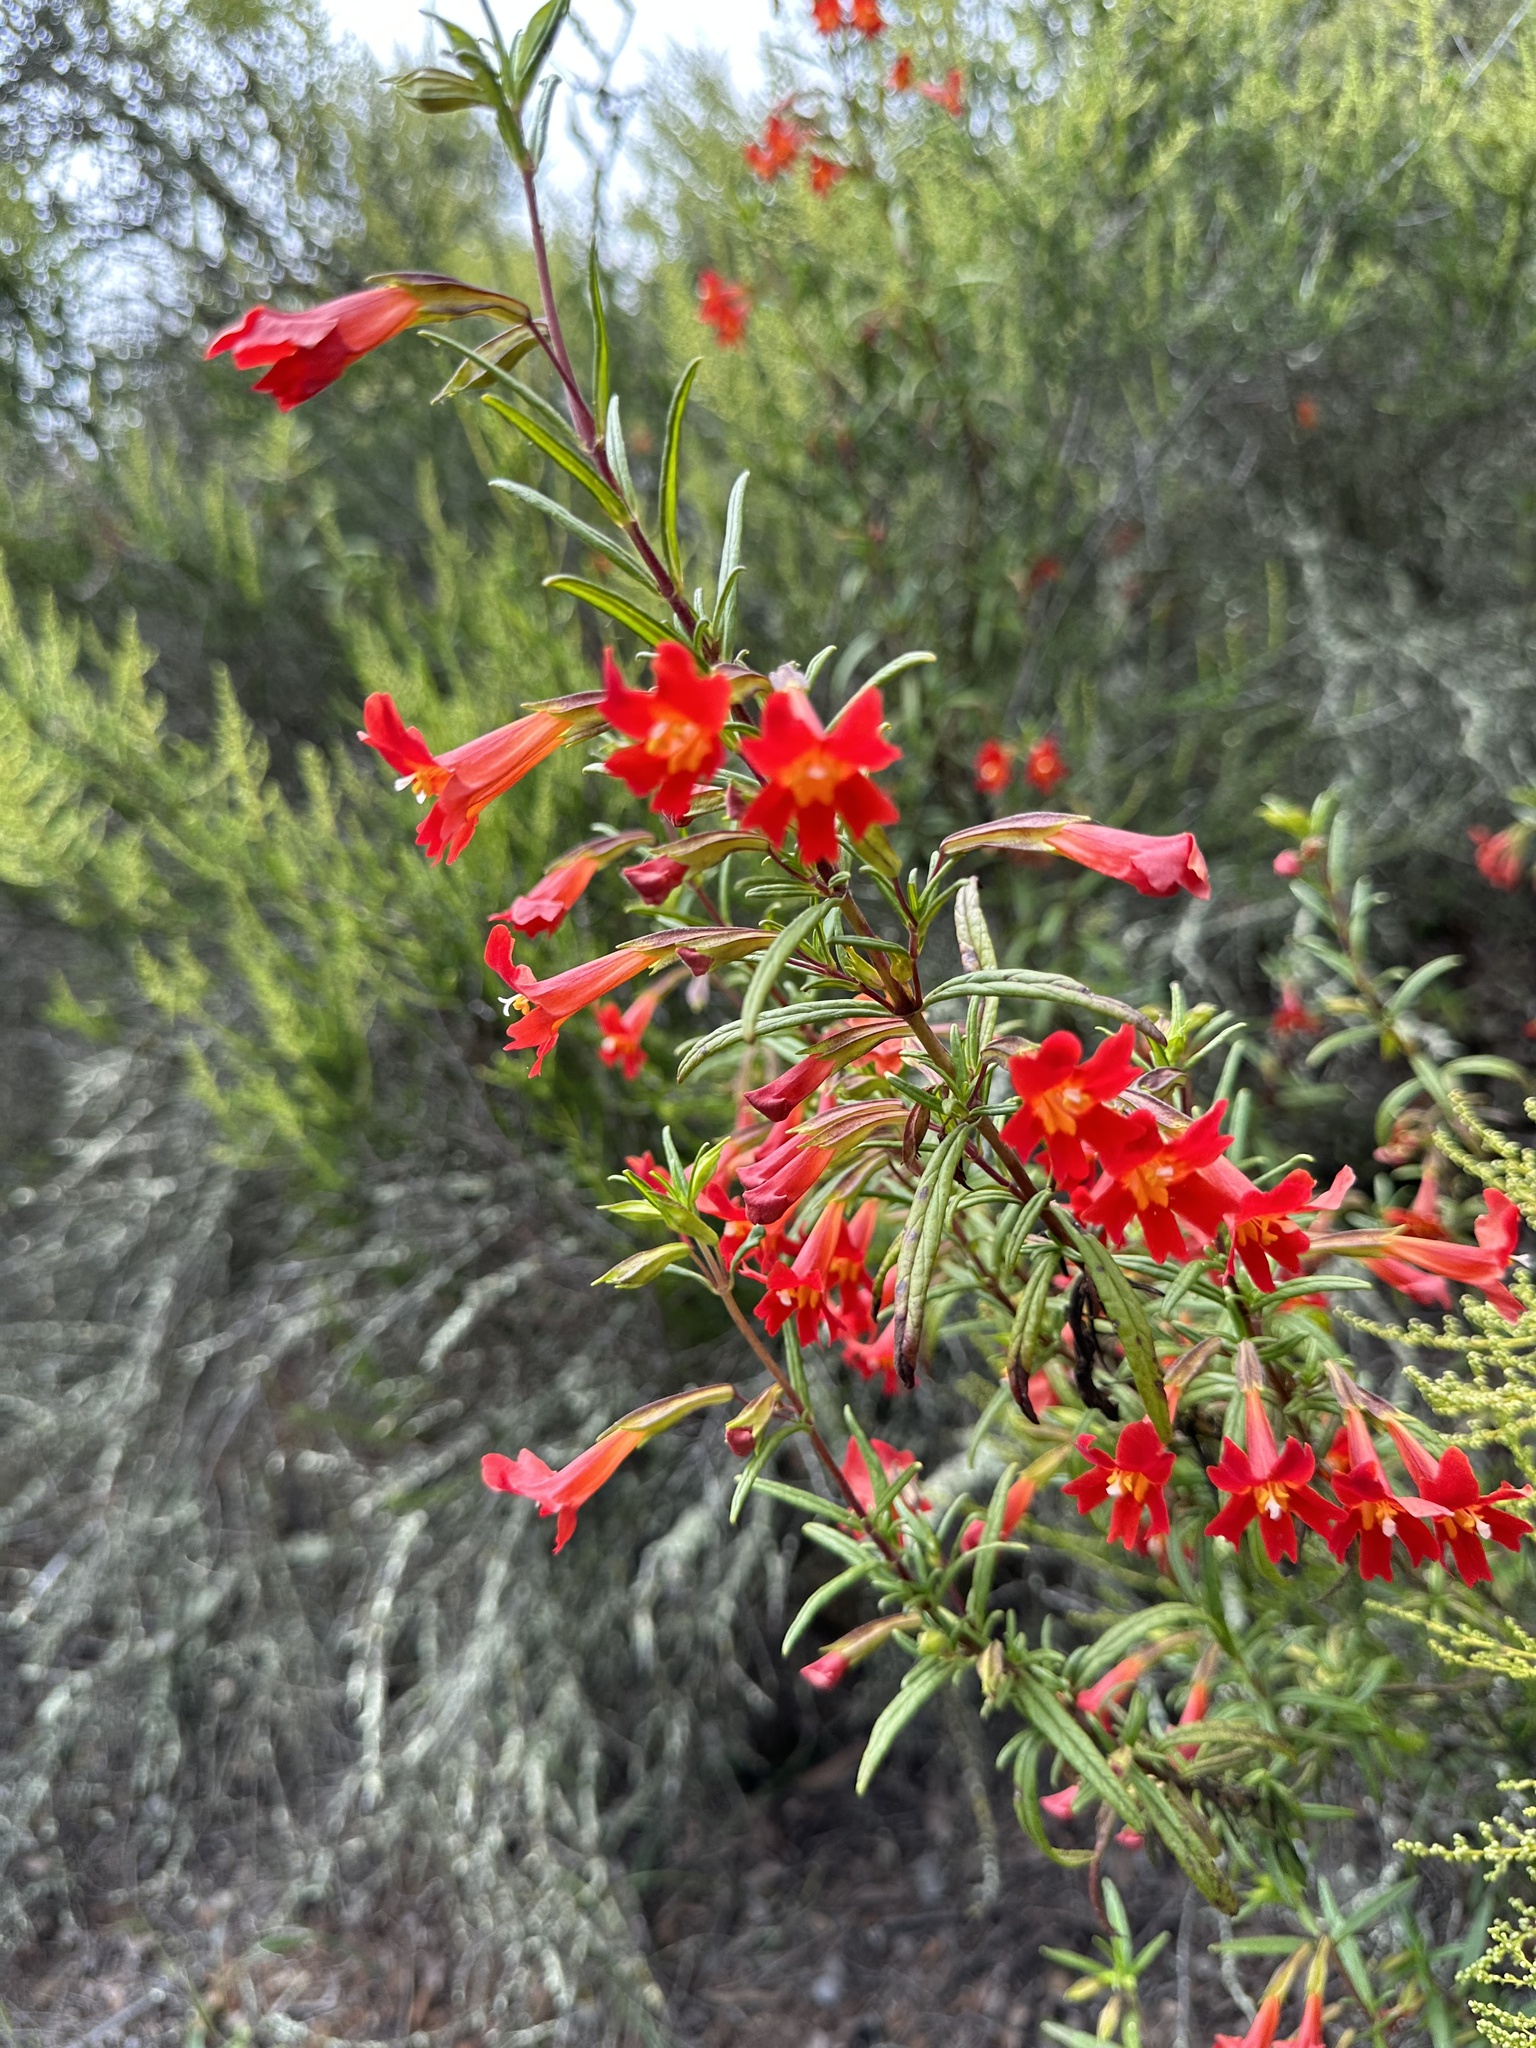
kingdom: Plantae
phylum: Tracheophyta
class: Magnoliopsida
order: Lamiales
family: Phrymaceae
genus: Diplacus
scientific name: Diplacus puniceus
